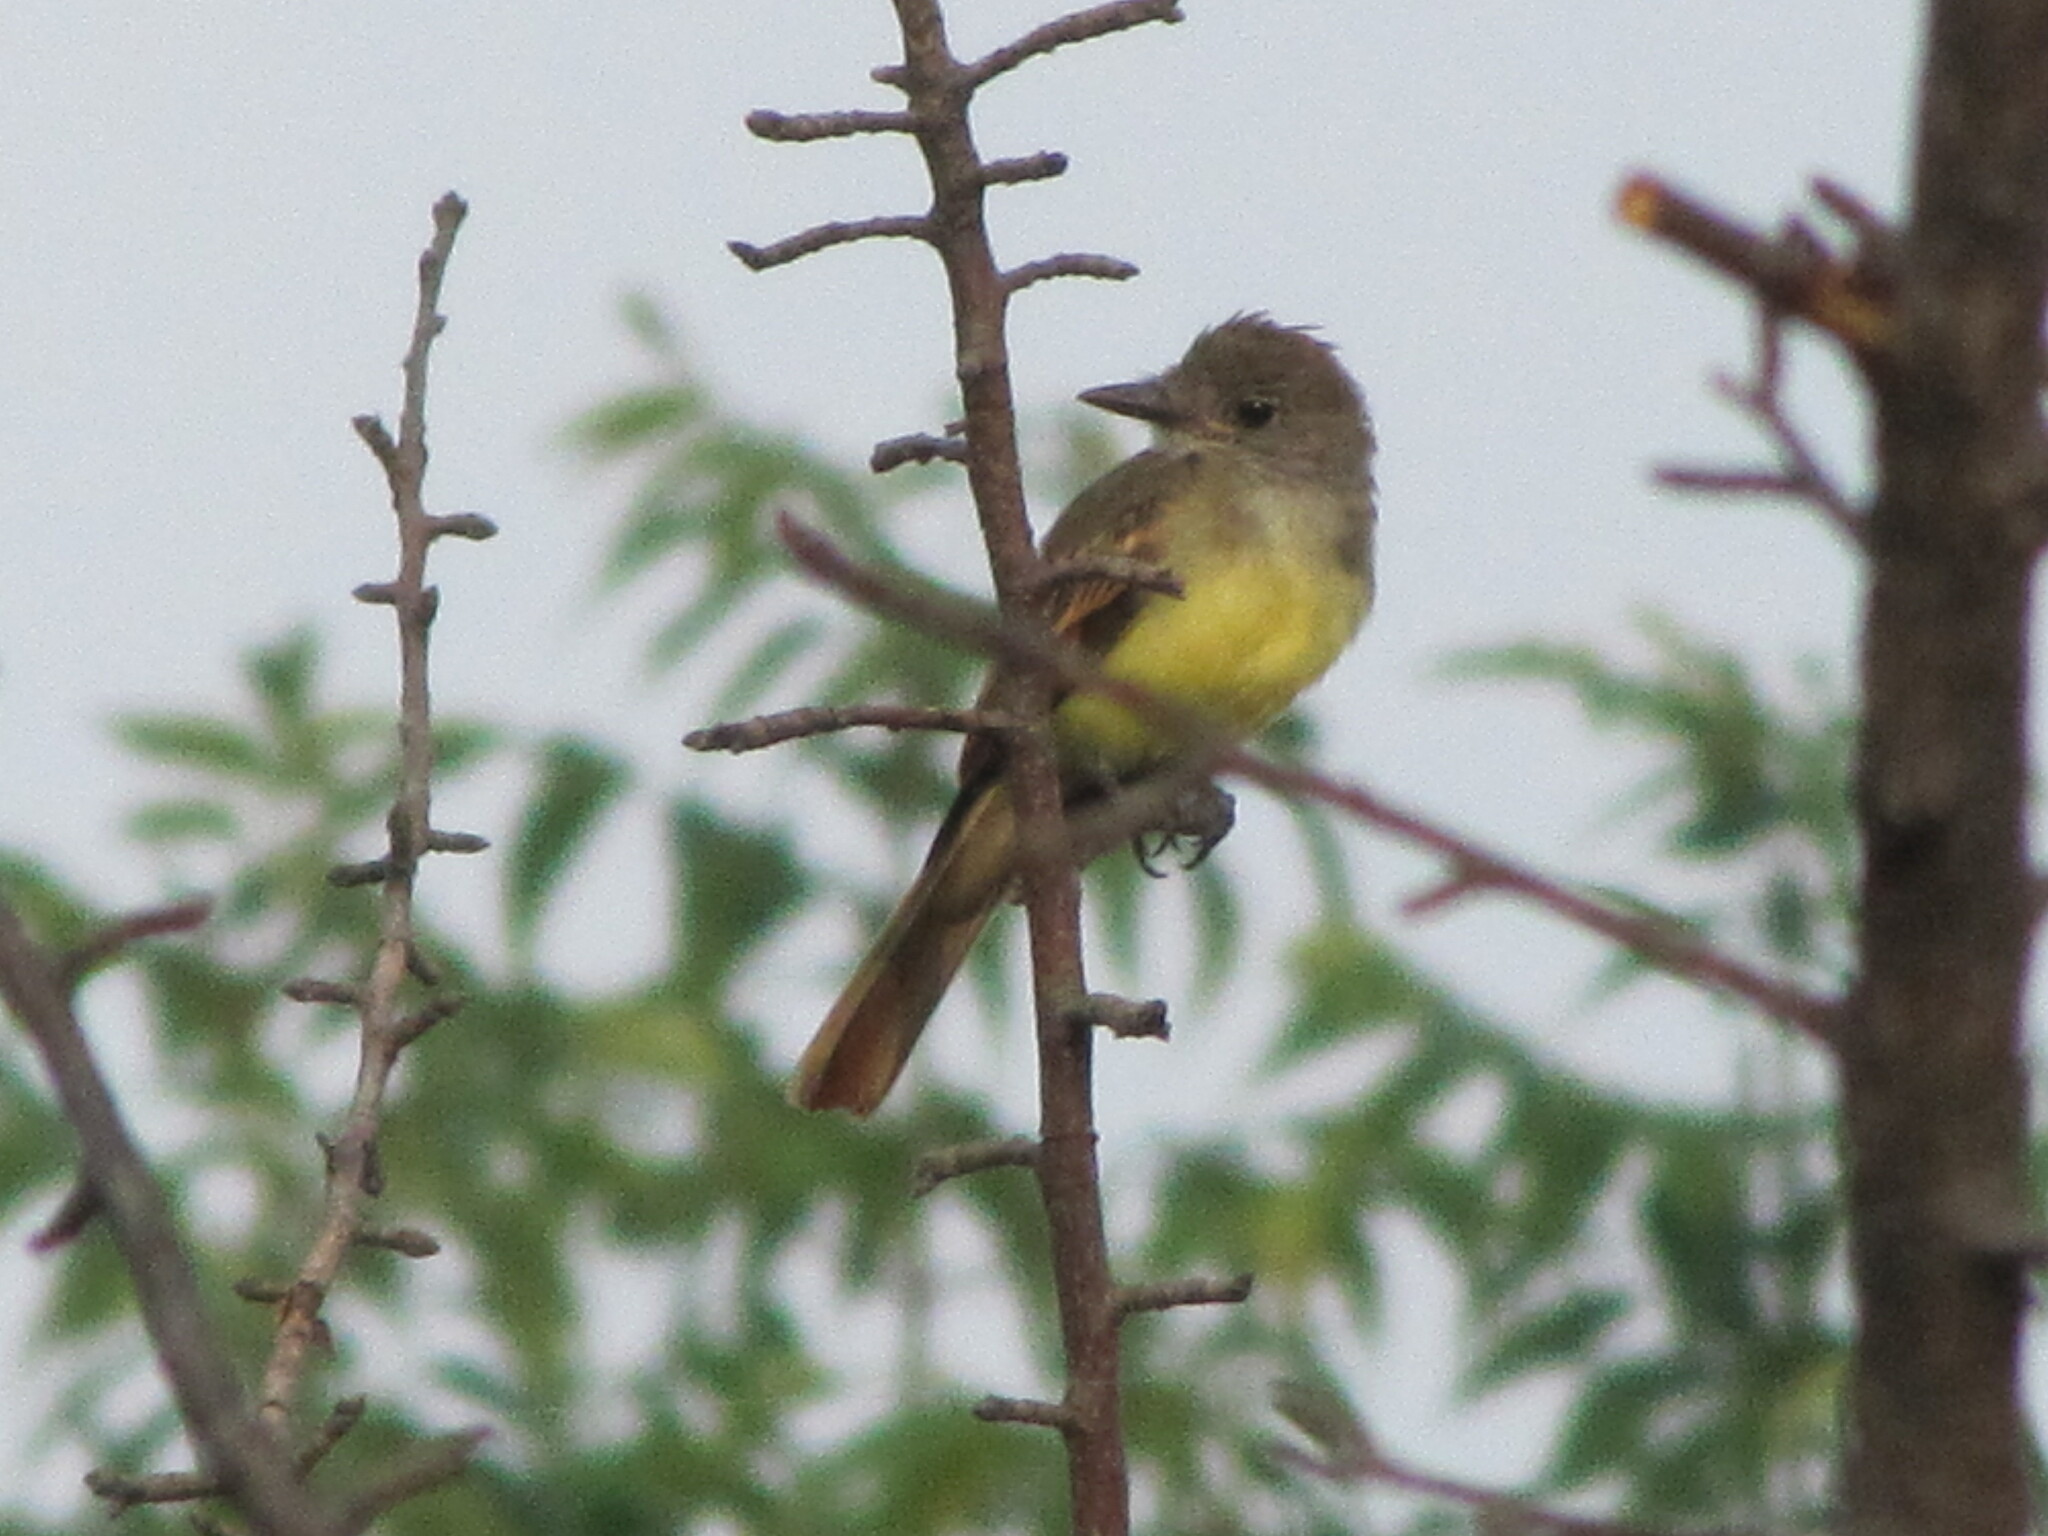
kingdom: Animalia
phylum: Chordata
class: Aves
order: Passeriformes
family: Tyrannidae
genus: Myiarchus
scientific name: Myiarchus crinitus
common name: Great crested flycatcher
